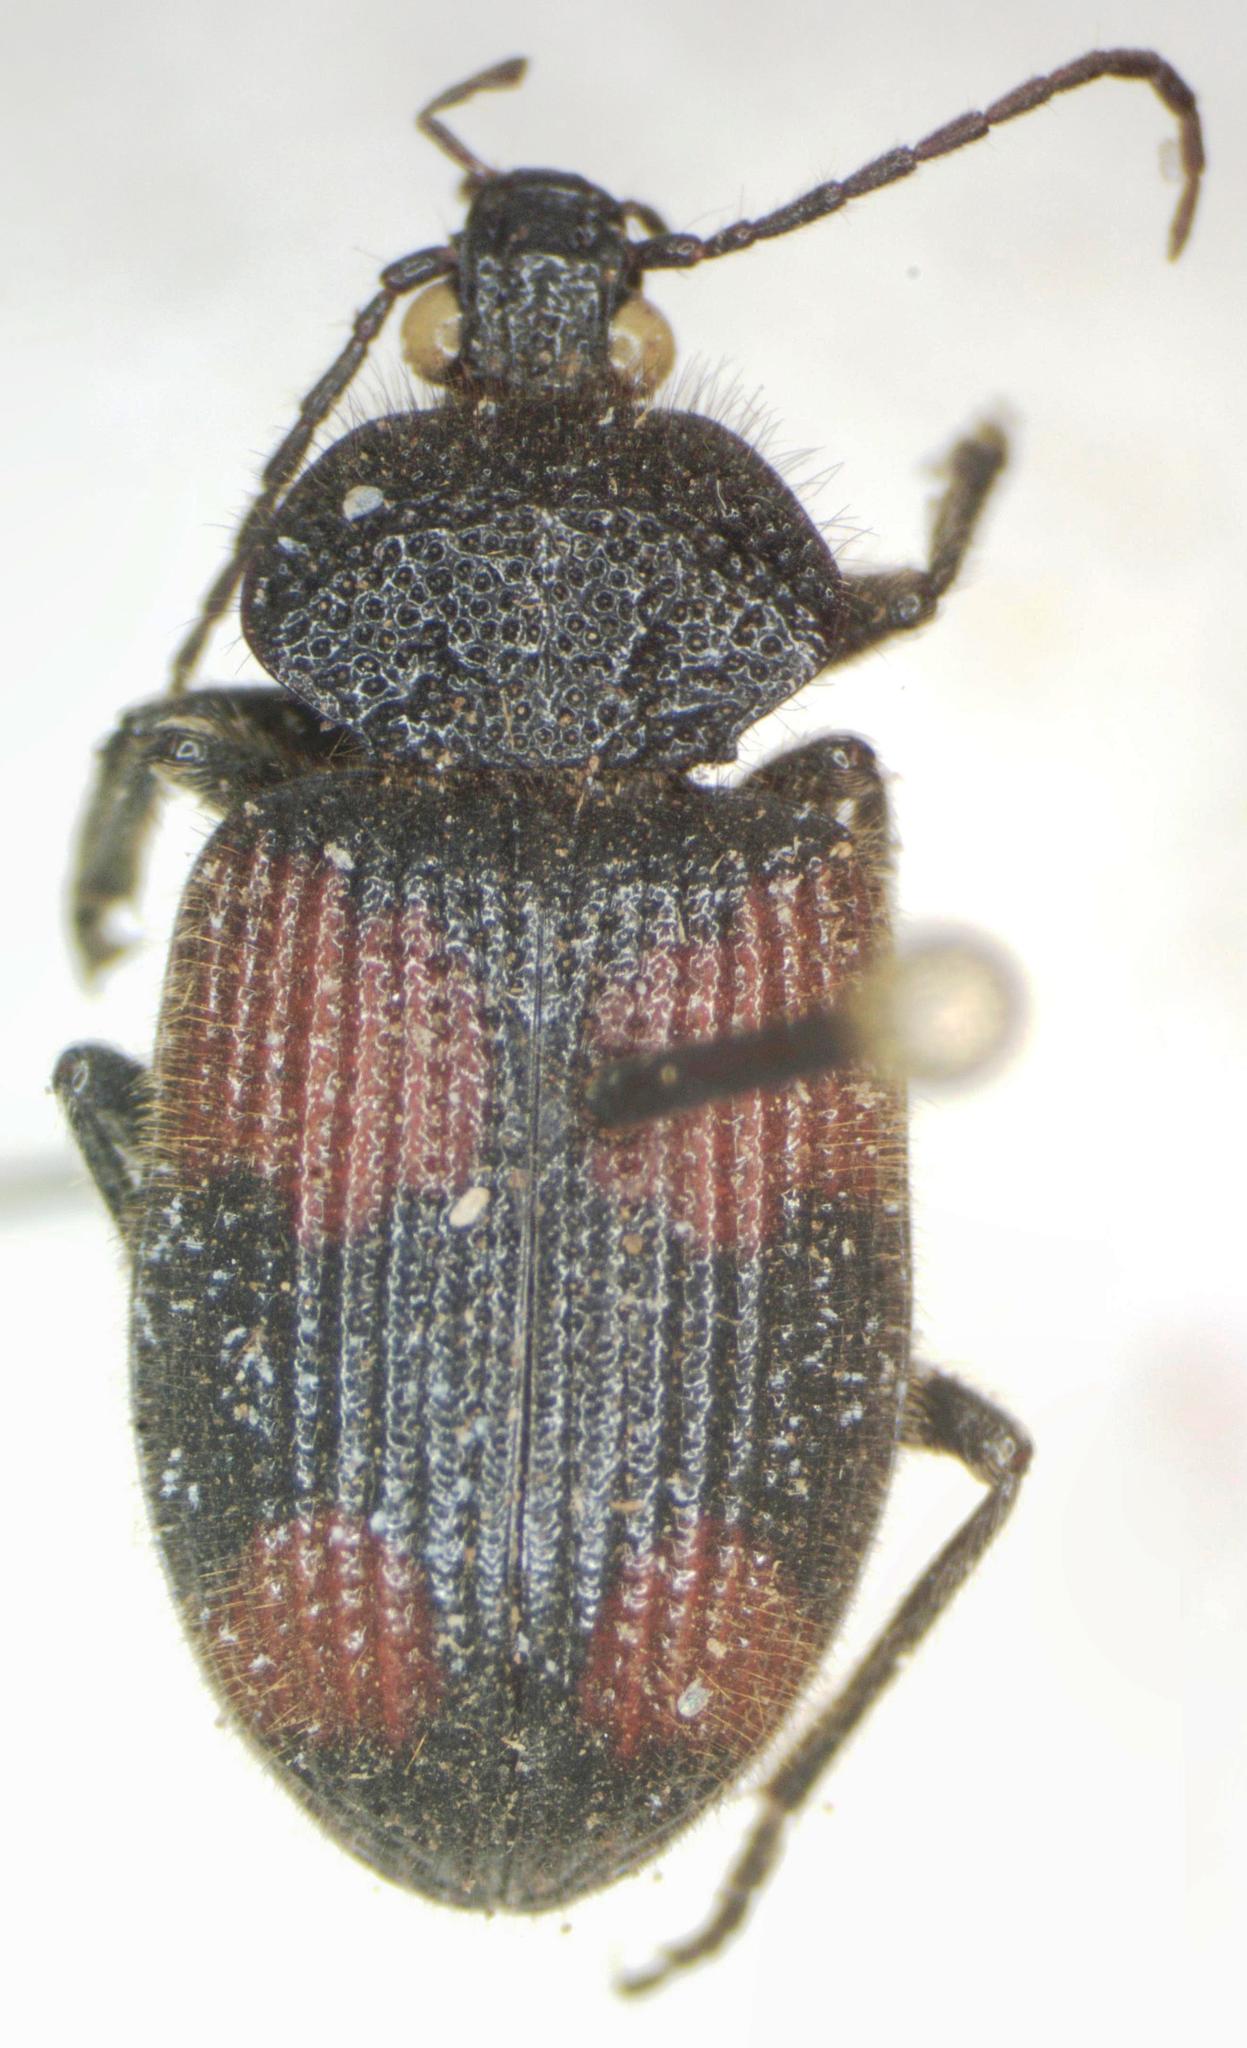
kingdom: Animalia
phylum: Arthropoda
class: Insecta
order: Coleoptera
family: Carabidae
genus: Panagaeus
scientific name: Panagaeus sallei
